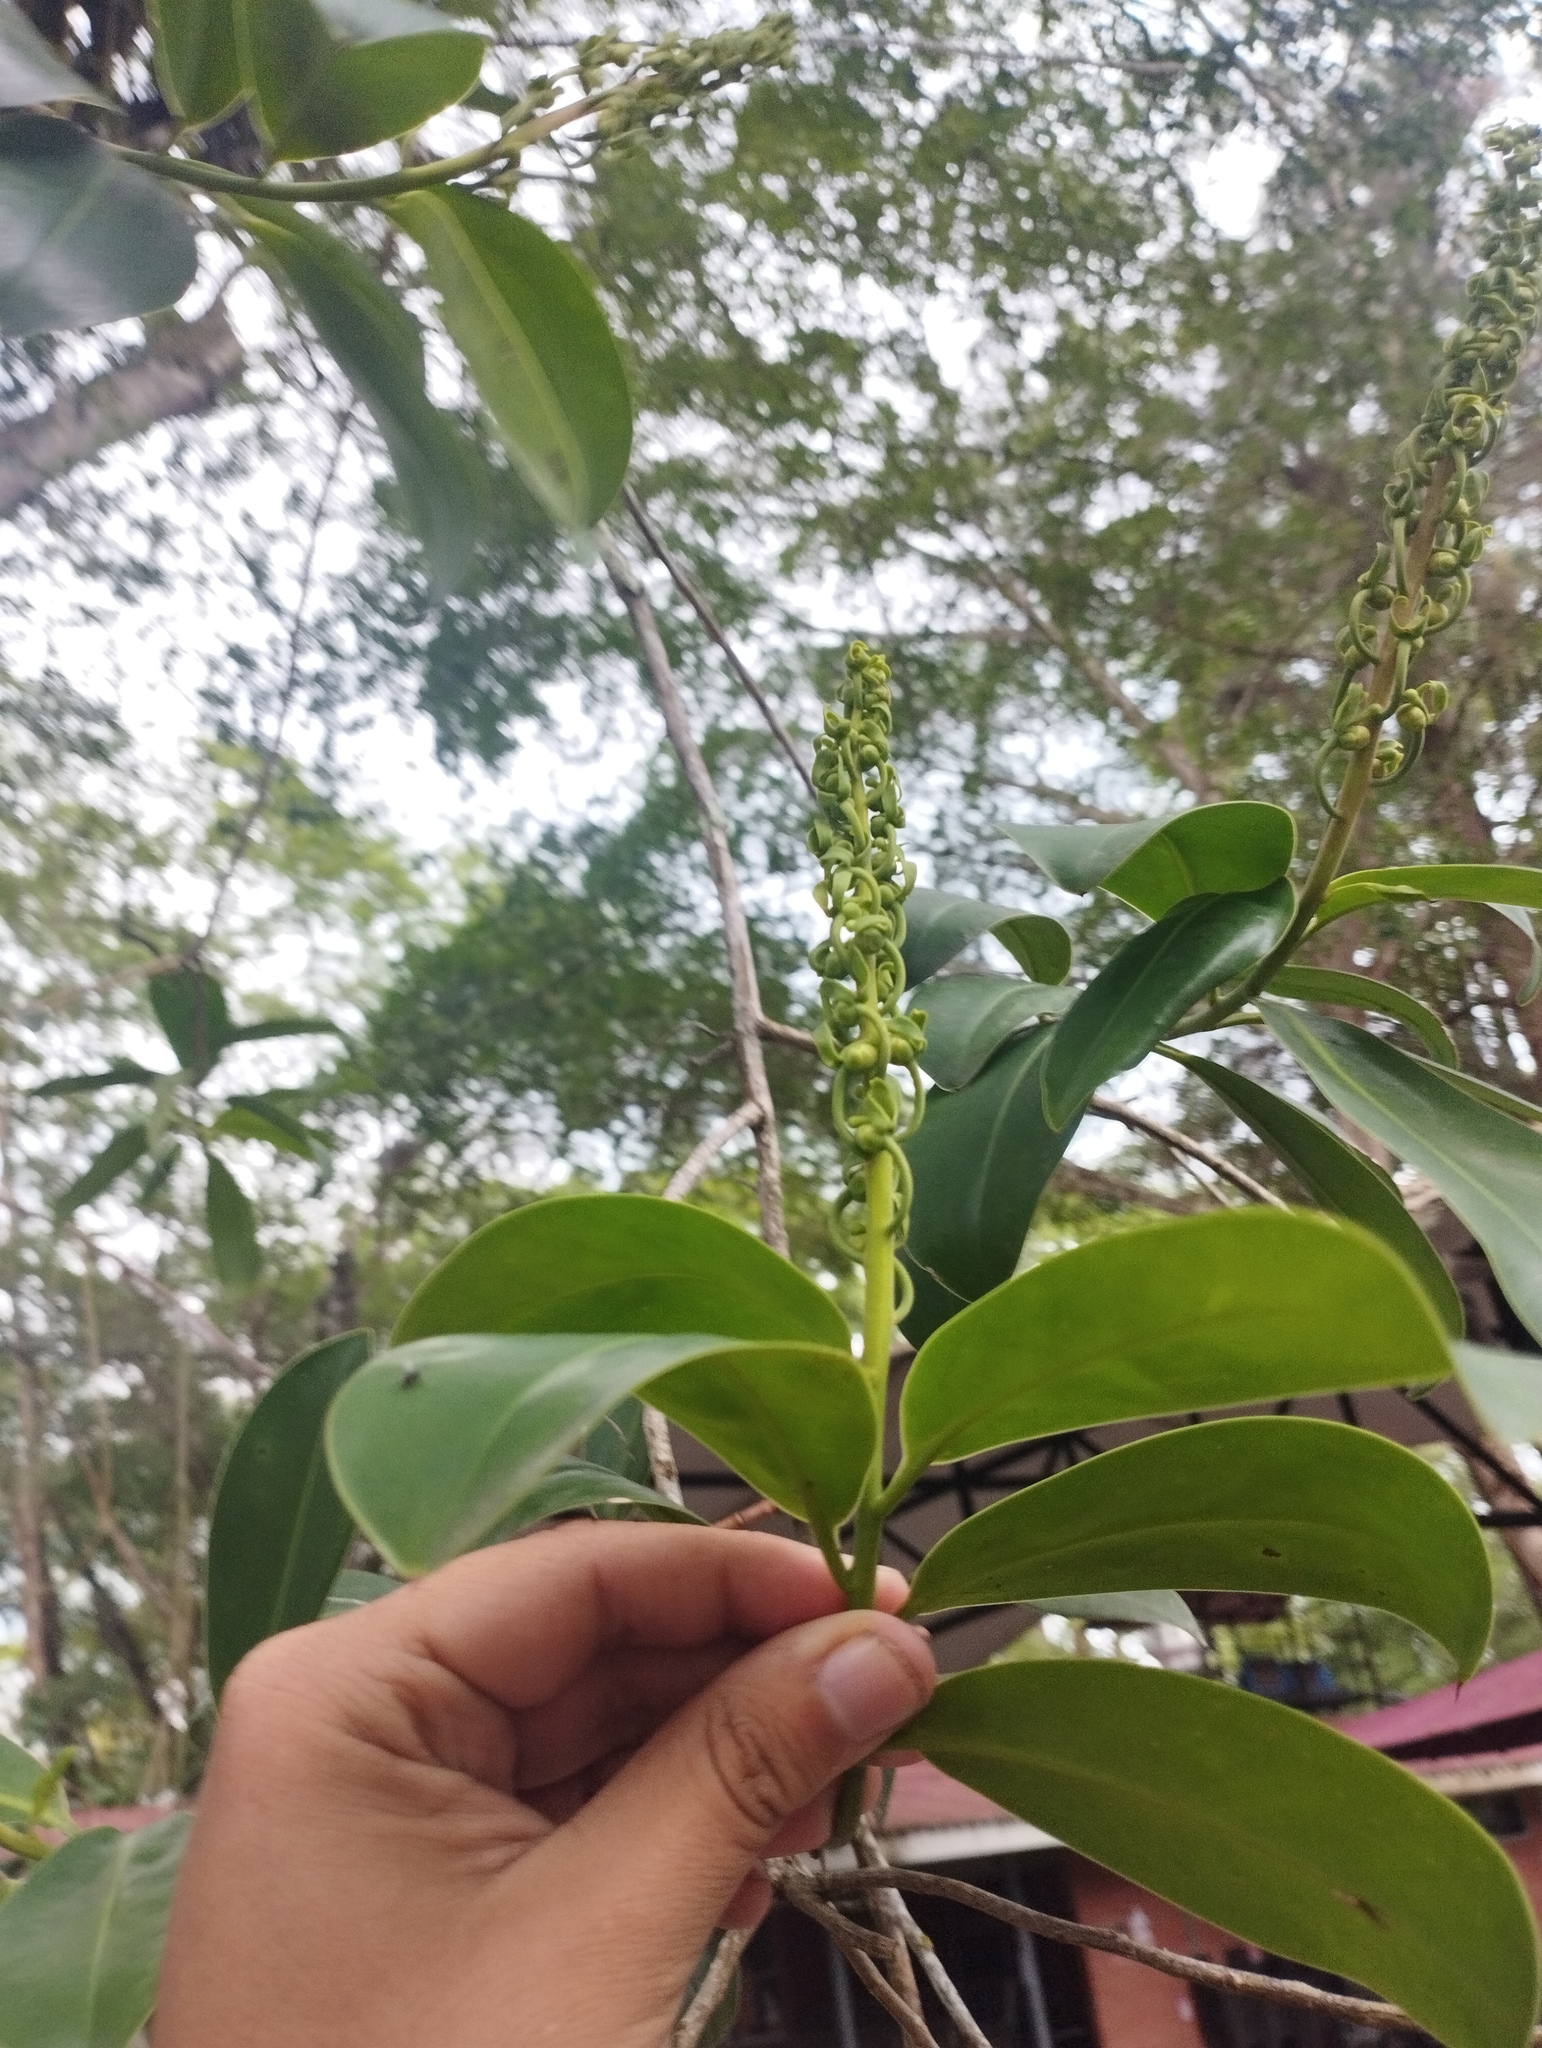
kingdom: Plantae
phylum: Tracheophyta
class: Magnoliopsida
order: Ericales
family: Marcgraviaceae
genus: Souroubea
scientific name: Souroubea sympetala
